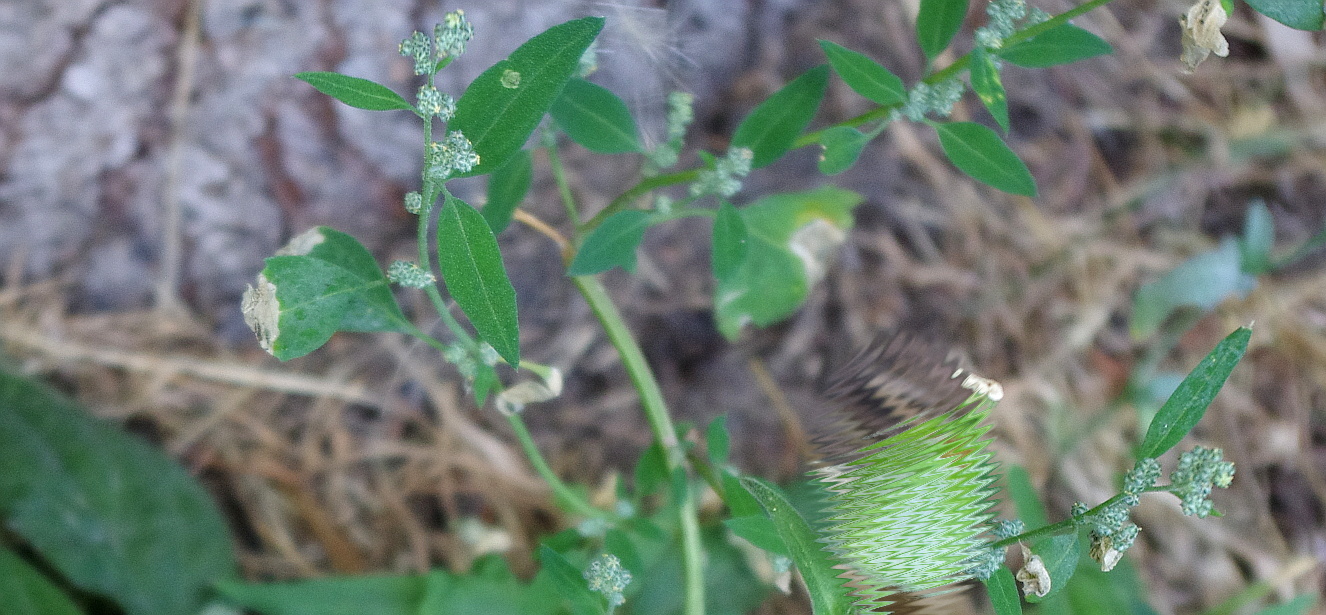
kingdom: Plantae
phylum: Tracheophyta
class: Magnoliopsida
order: Caryophyllales
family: Amaranthaceae
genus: Chenopodium
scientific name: Chenopodium album
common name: Fat-hen
